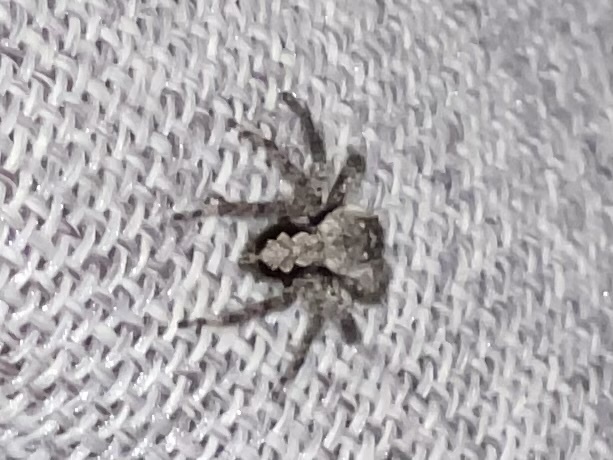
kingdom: Animalia
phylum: Arthropoda
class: Arachnida
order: Araneae
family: Salticidae
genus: Platycryptus
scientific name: Platycryptus undatus
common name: Tan jumping spider
